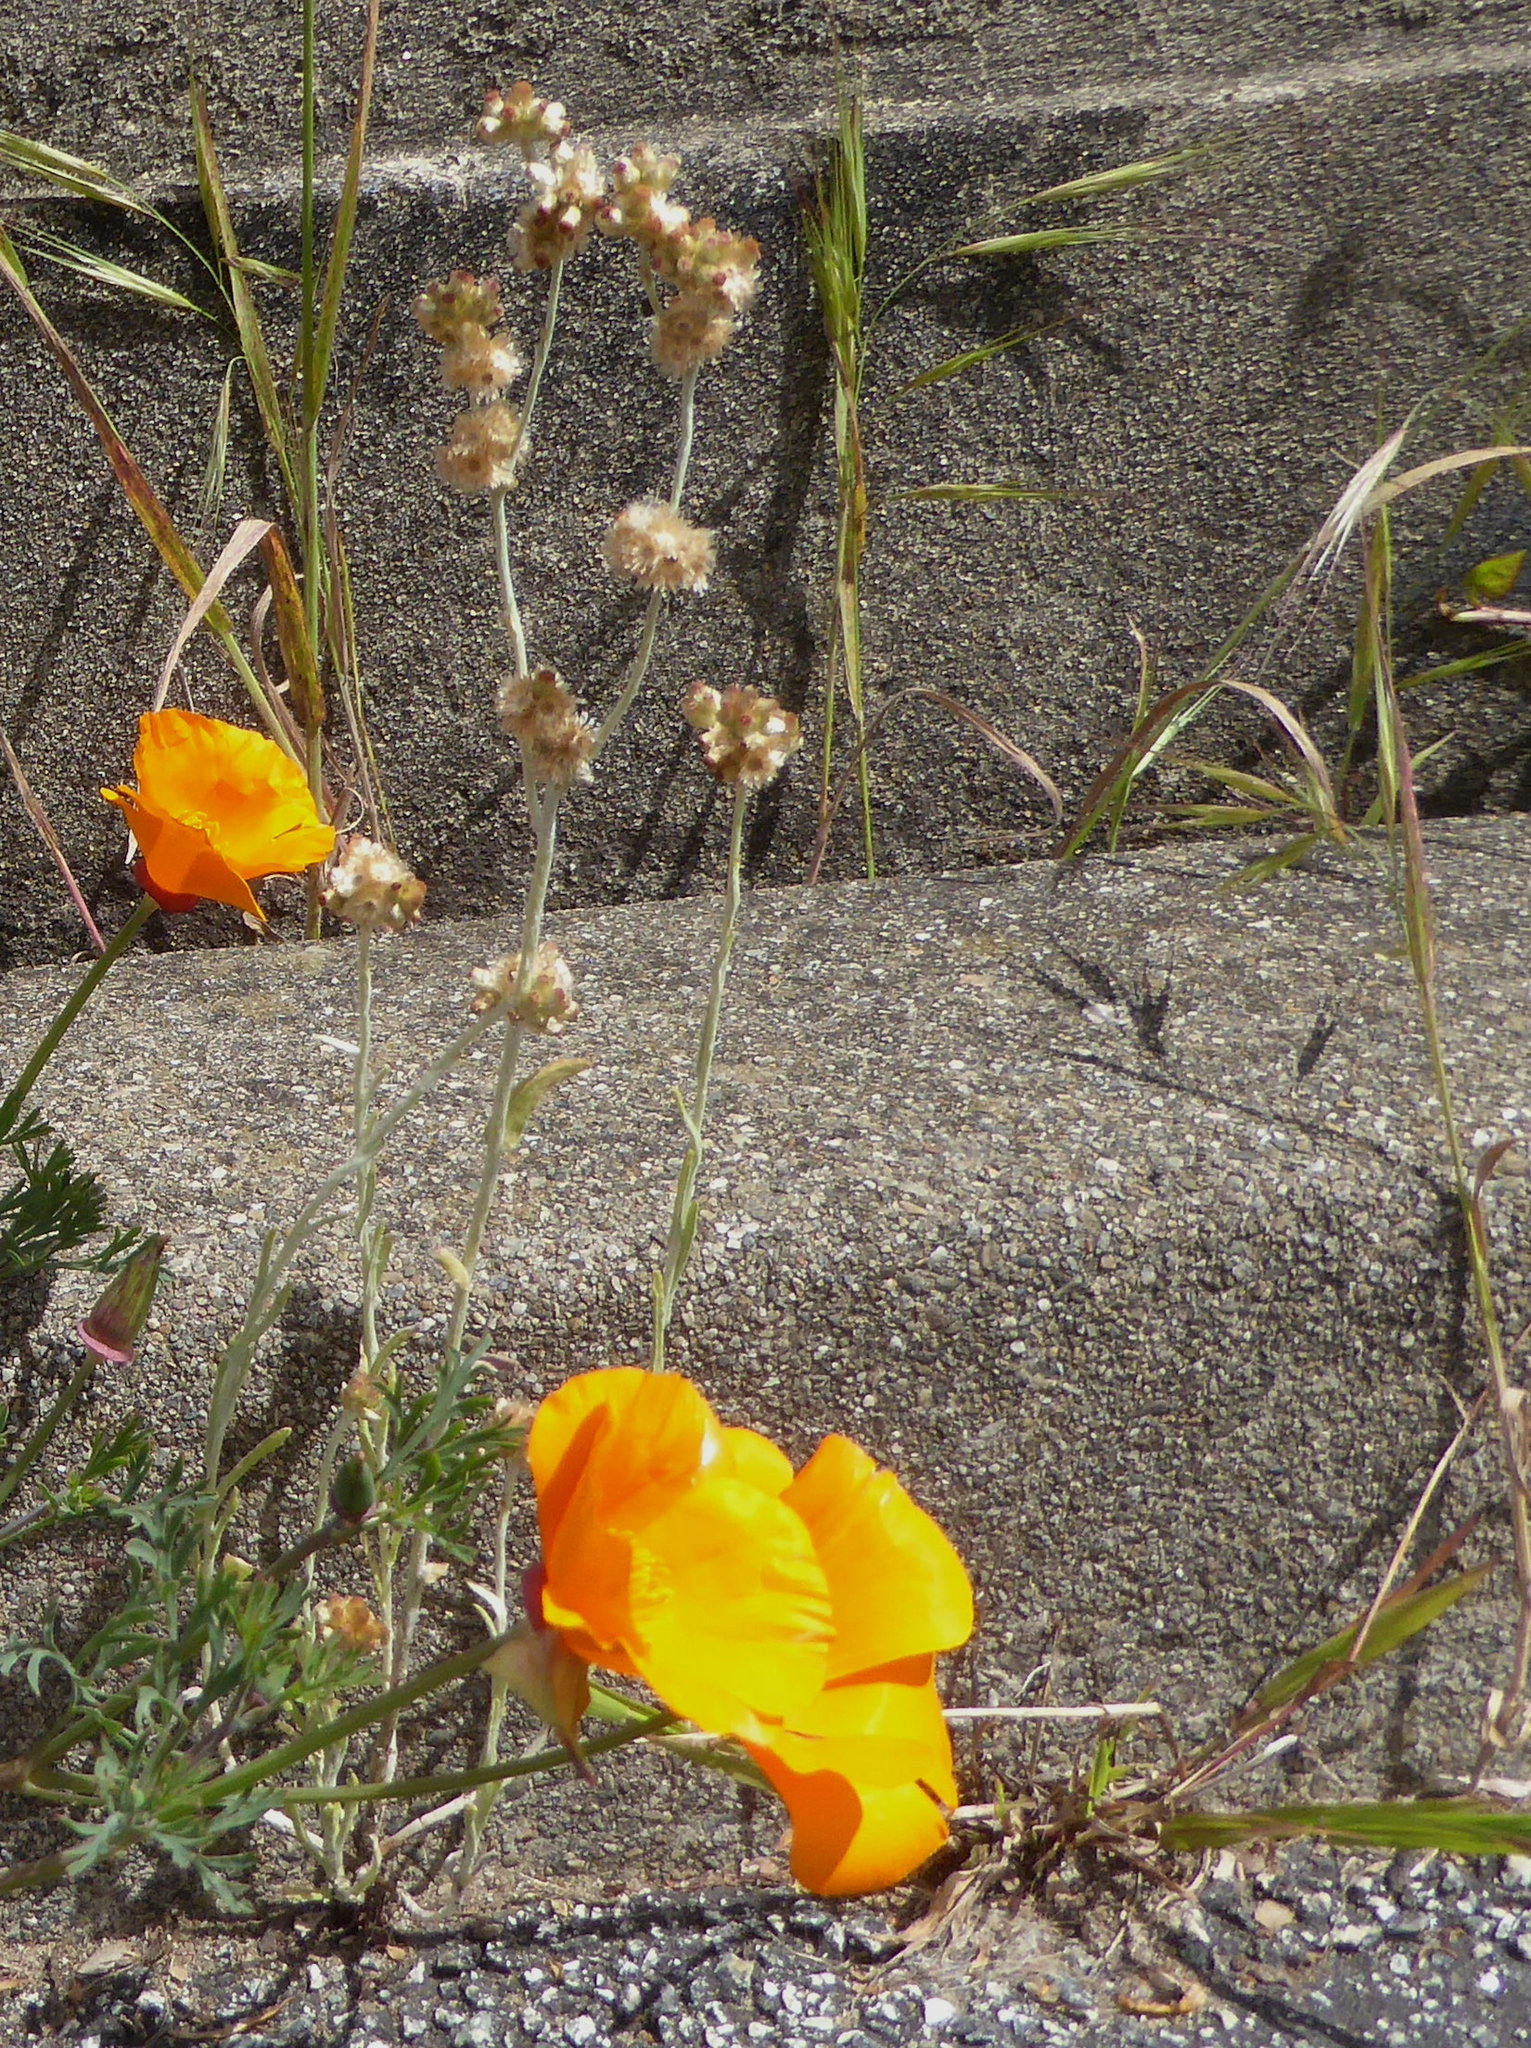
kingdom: Plantae
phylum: Tracheophyta
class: Magnoliopsida
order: Asterales
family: Asteraceae
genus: Helichrysum
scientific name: Helichrysum luteoalbum
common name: Daisy
